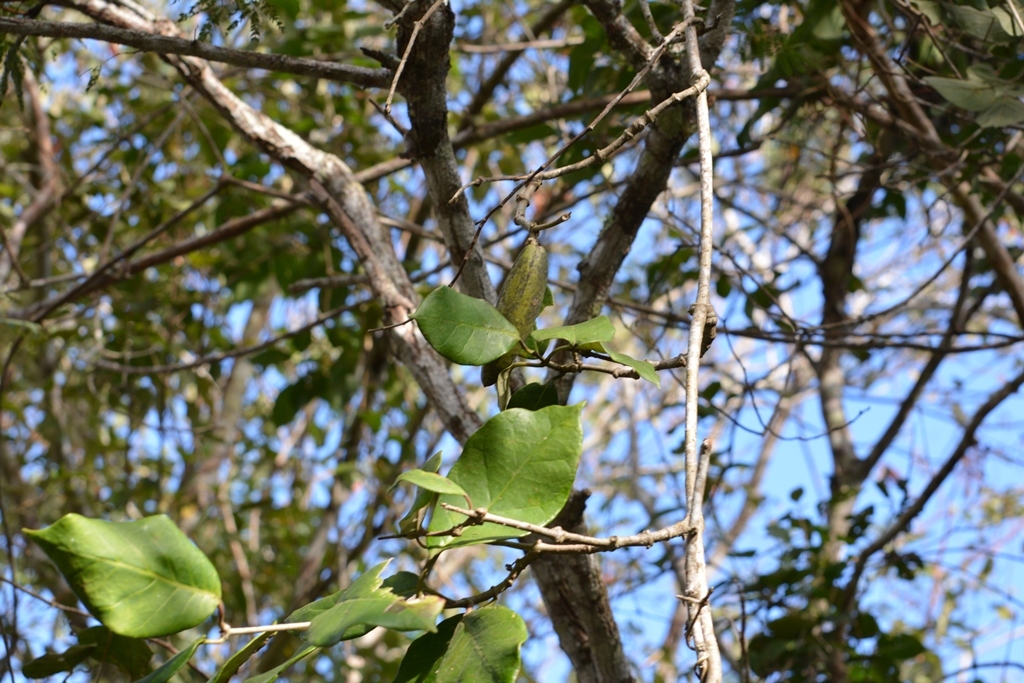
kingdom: Plantae
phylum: Tracheophyta
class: Magnoliopsida
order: Gentianales
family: Apocynaceae
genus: Ruehssia
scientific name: Ruehssia gualanensis
